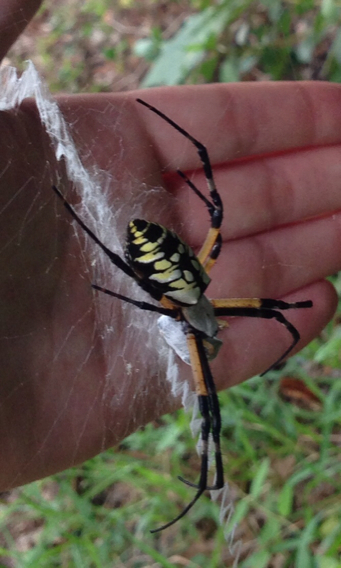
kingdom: Animalia
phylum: Arthropoda
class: Arachnida
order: Araneae
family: Araneidae
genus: Argiope
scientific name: Argiope aurantia
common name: Orb weavers
